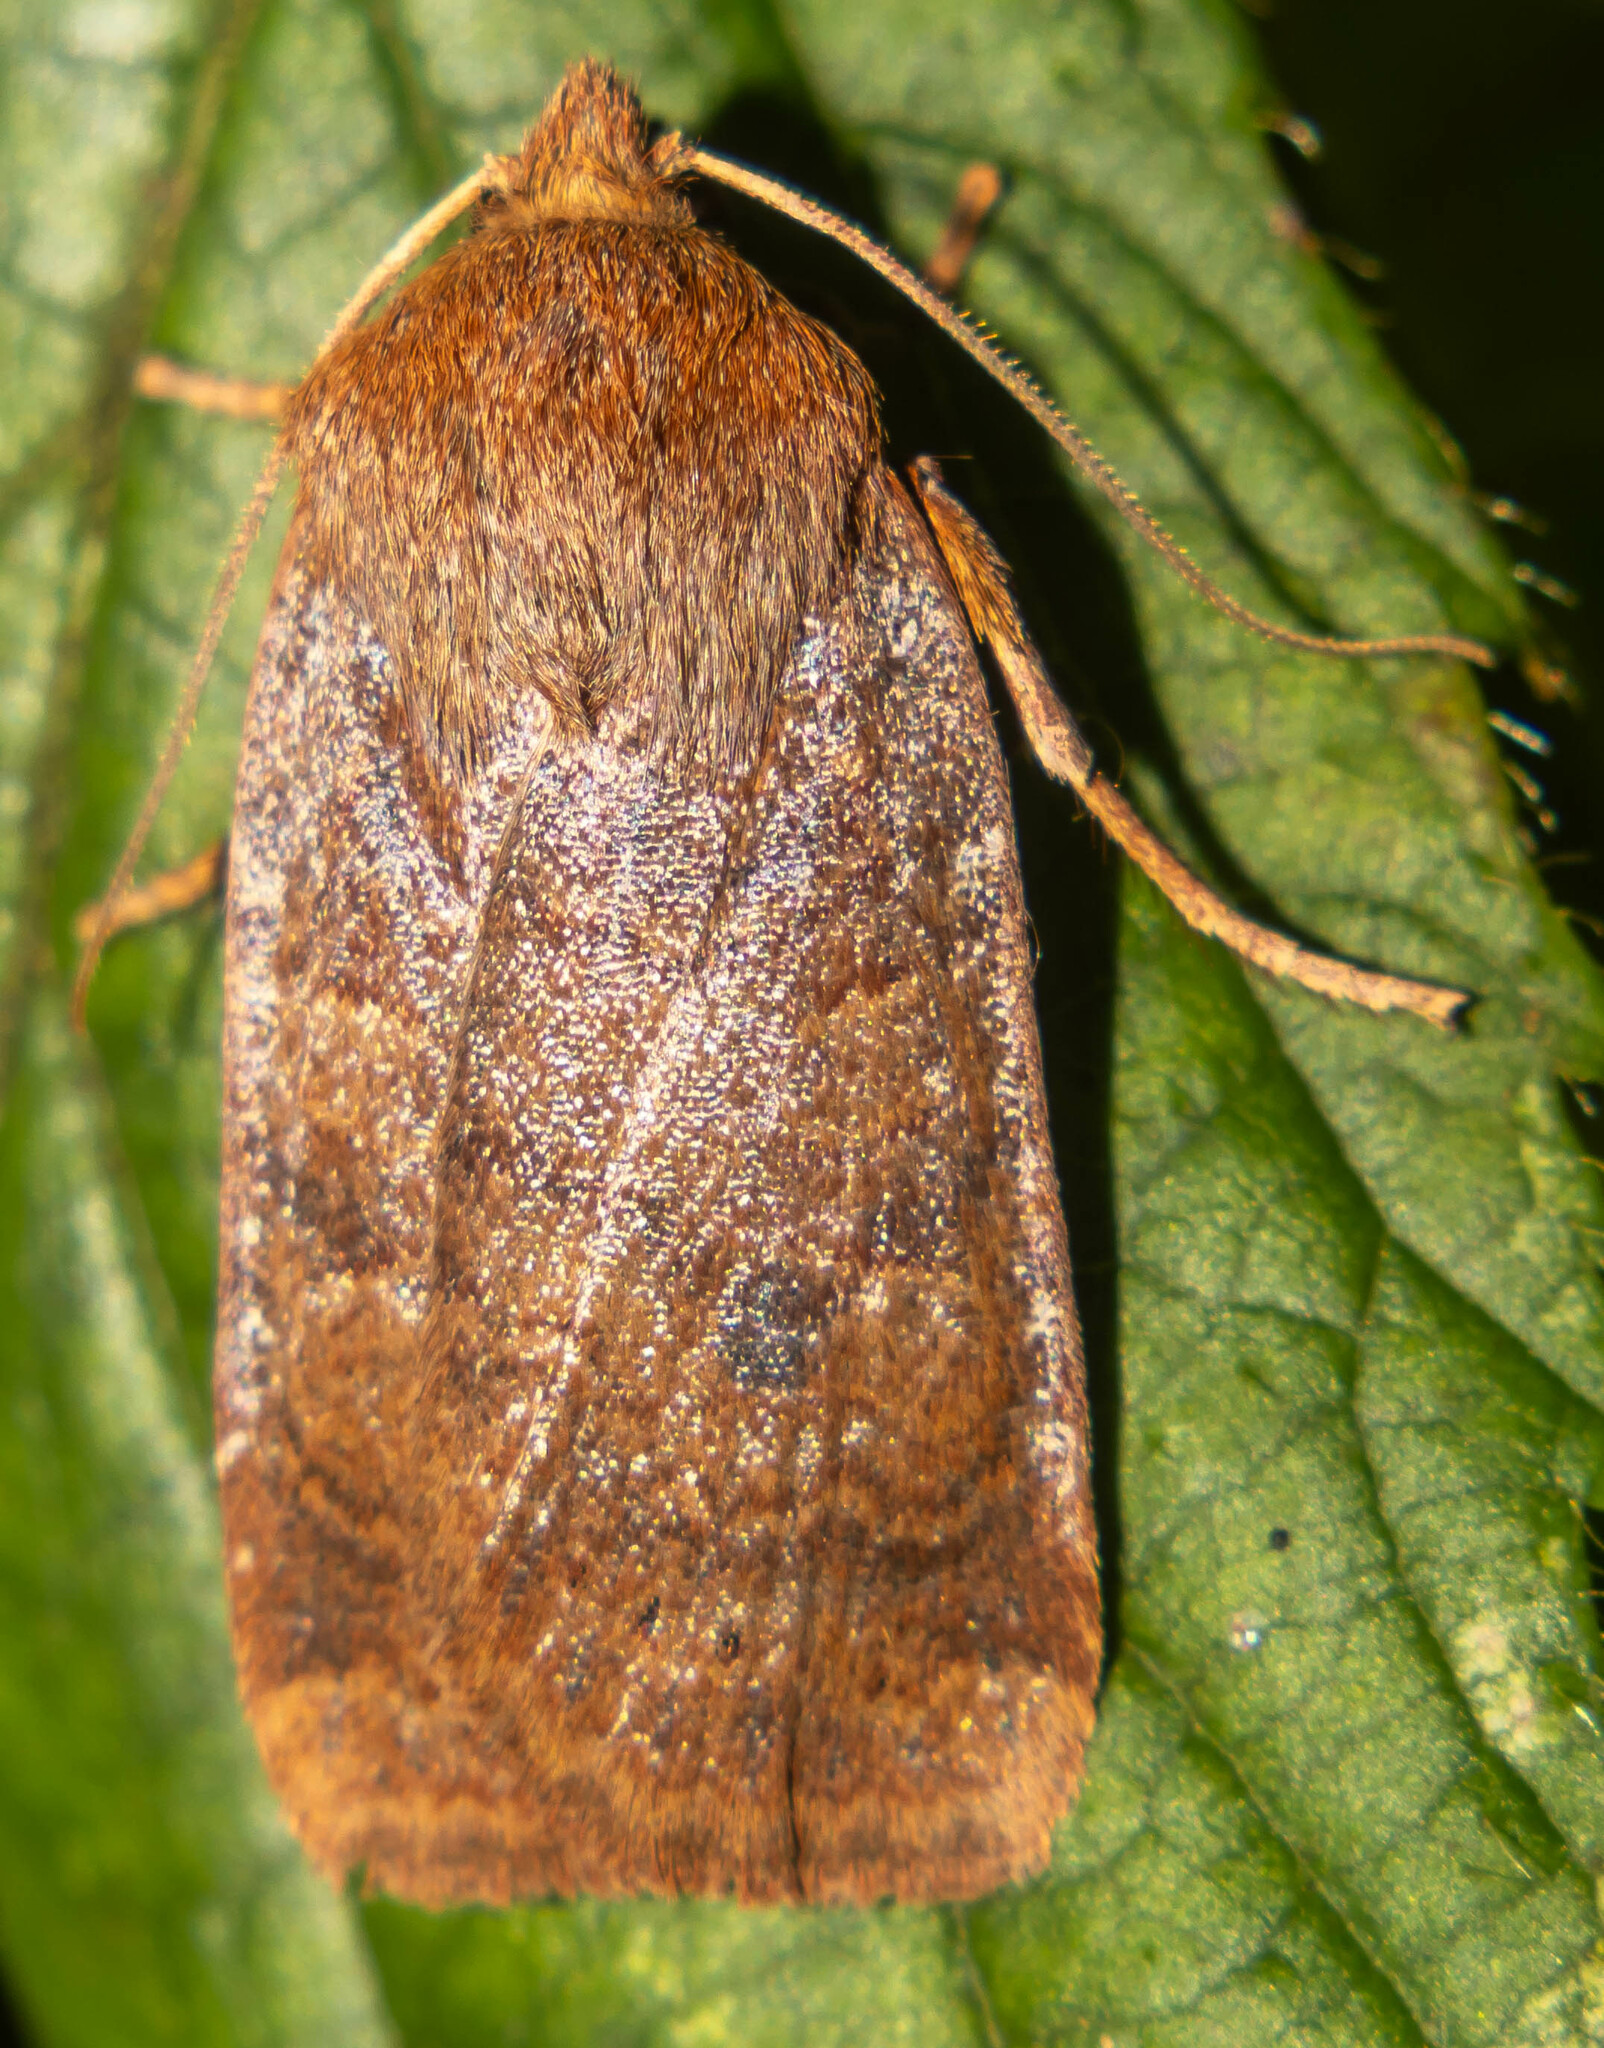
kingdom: Animalia
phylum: Arthropoda
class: Insecta
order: Lepidoptera
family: Noctuidae
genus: Conistra
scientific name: Conistra vaccinii
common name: Chestnut
